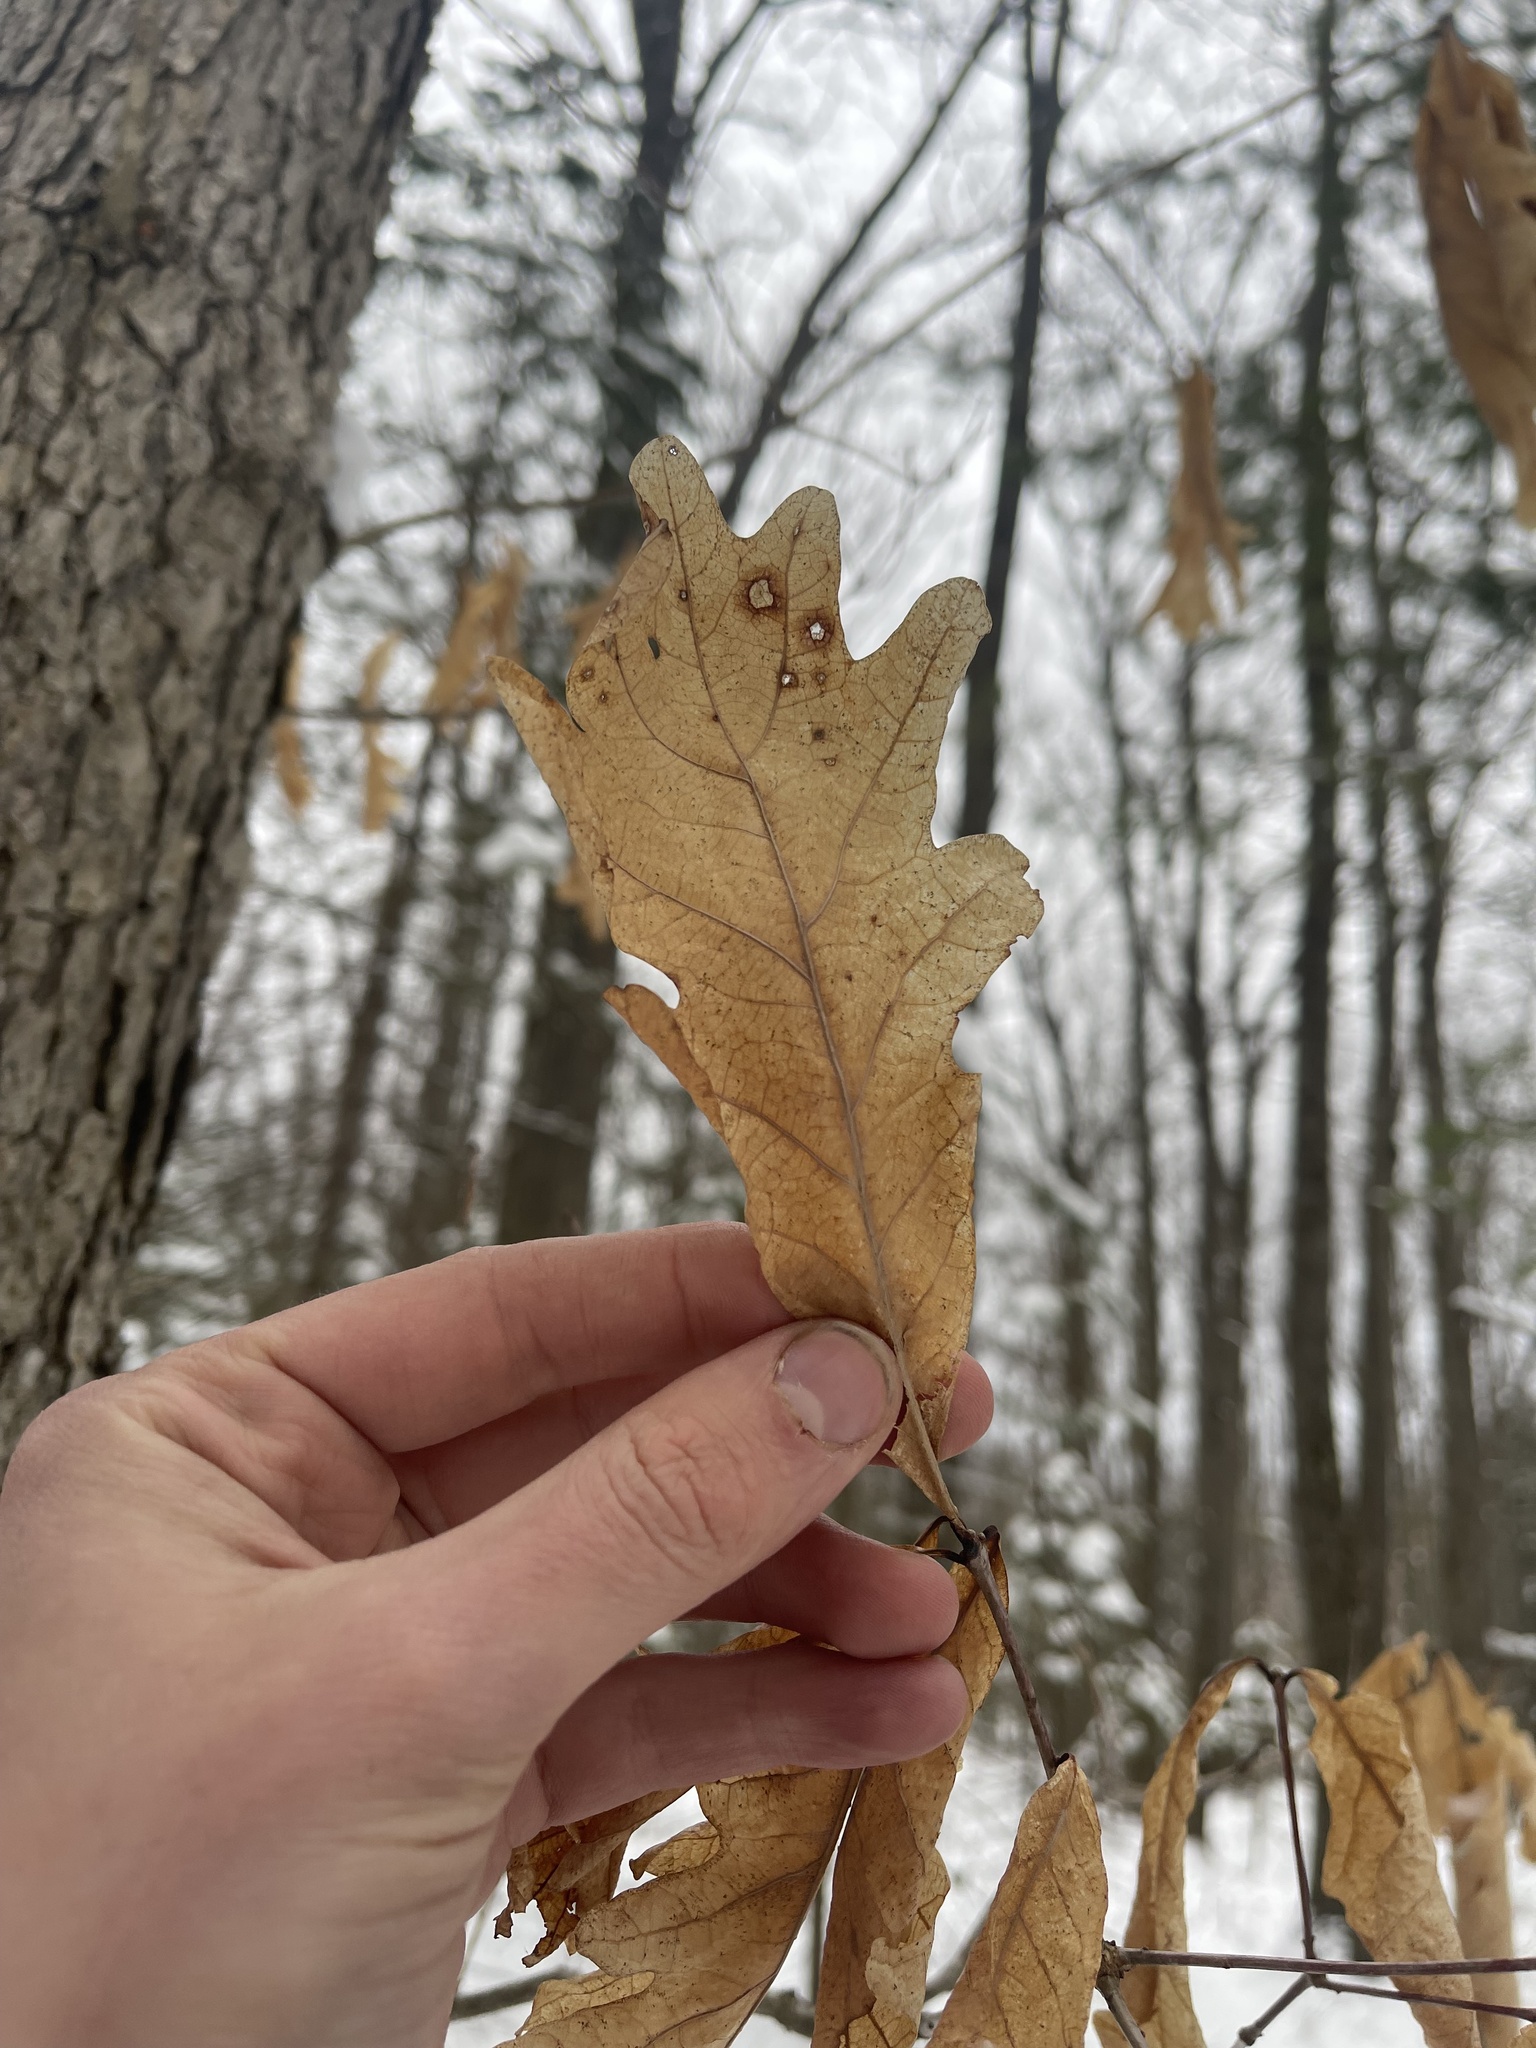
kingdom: Plantae
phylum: Tracheophyta
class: Magnoliopsida
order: Fagales
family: Fagaceae
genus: Quercus
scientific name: Quercus alba
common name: White oak
